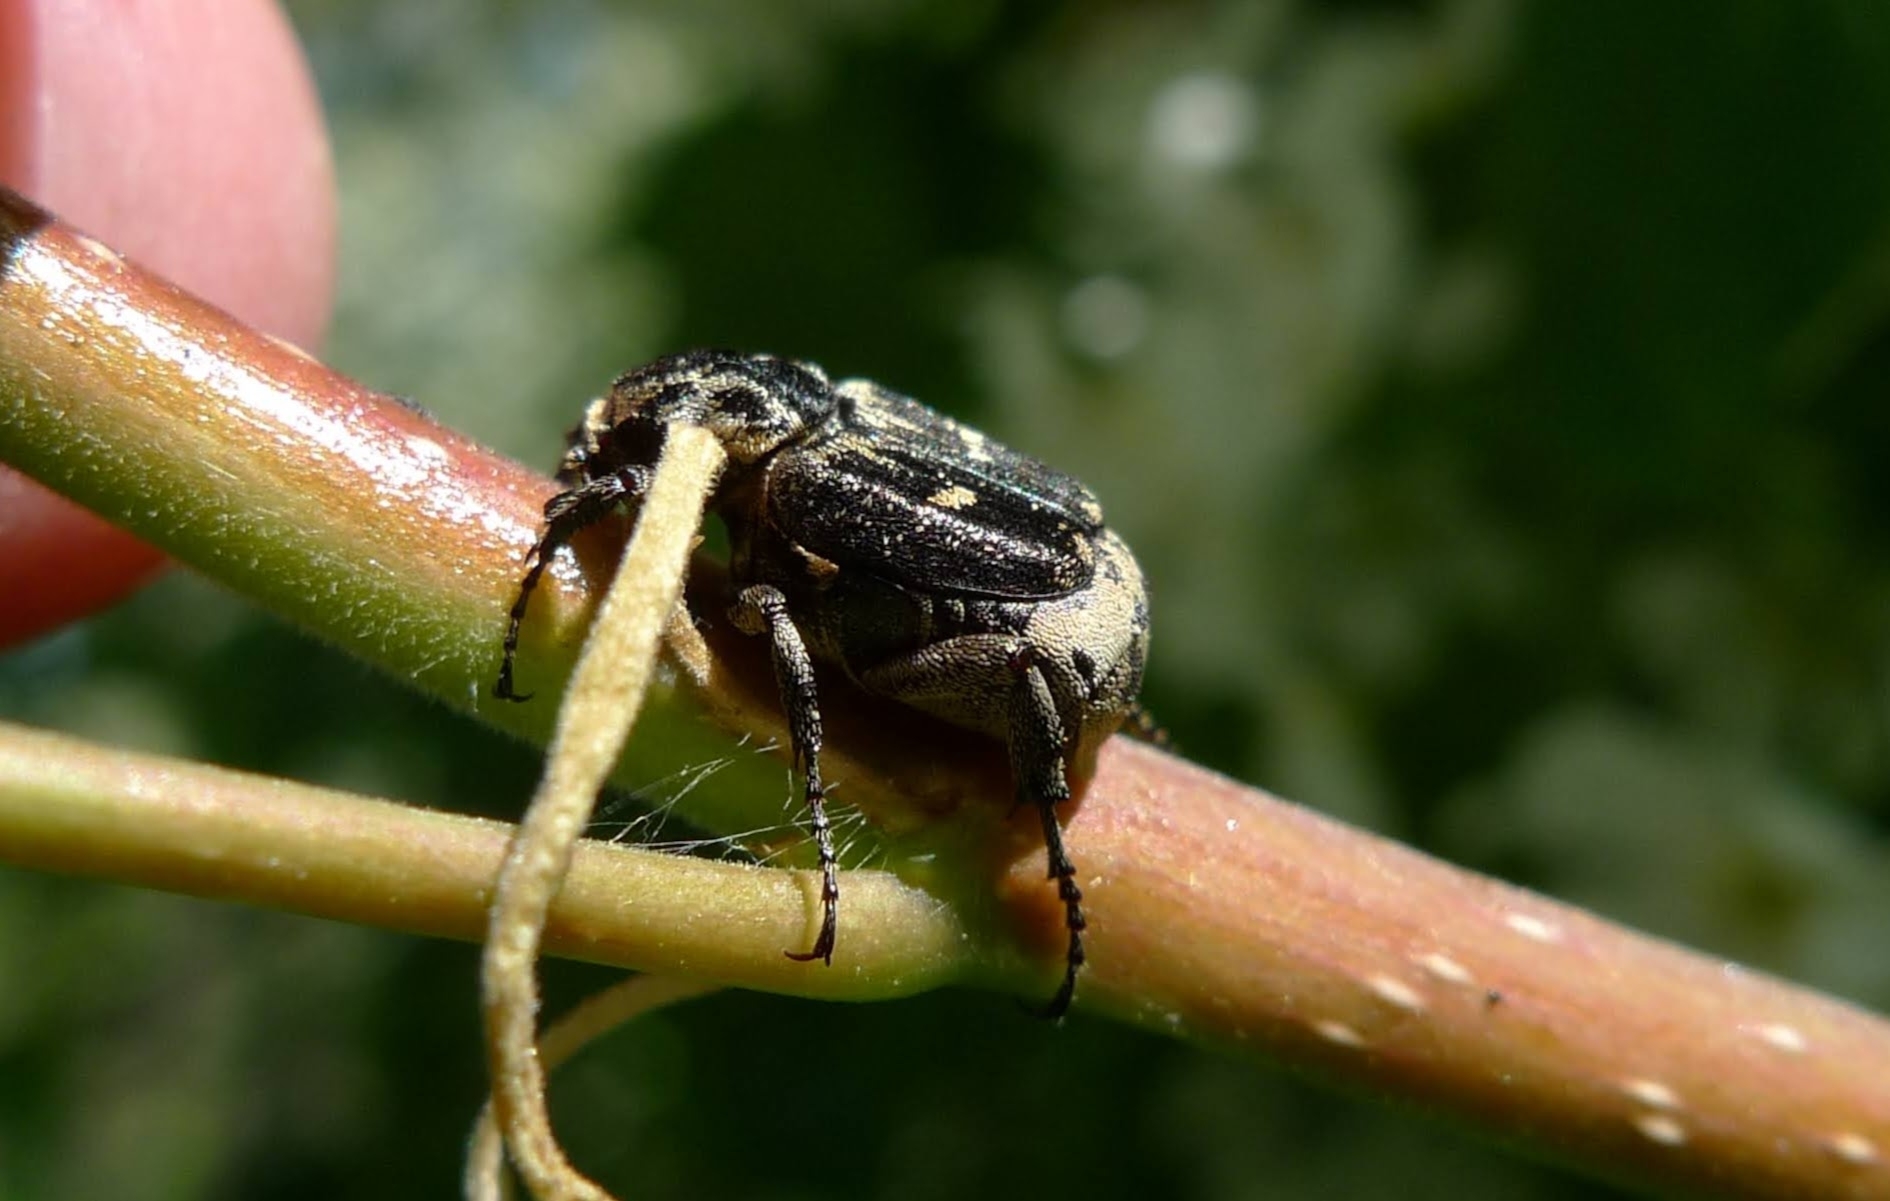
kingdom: Animalia
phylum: Arthropoda
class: Insecta
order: Coleoptera
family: Scarabaeidae
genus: Valgus
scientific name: Valgus hemipterus
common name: Bug flower chafer
